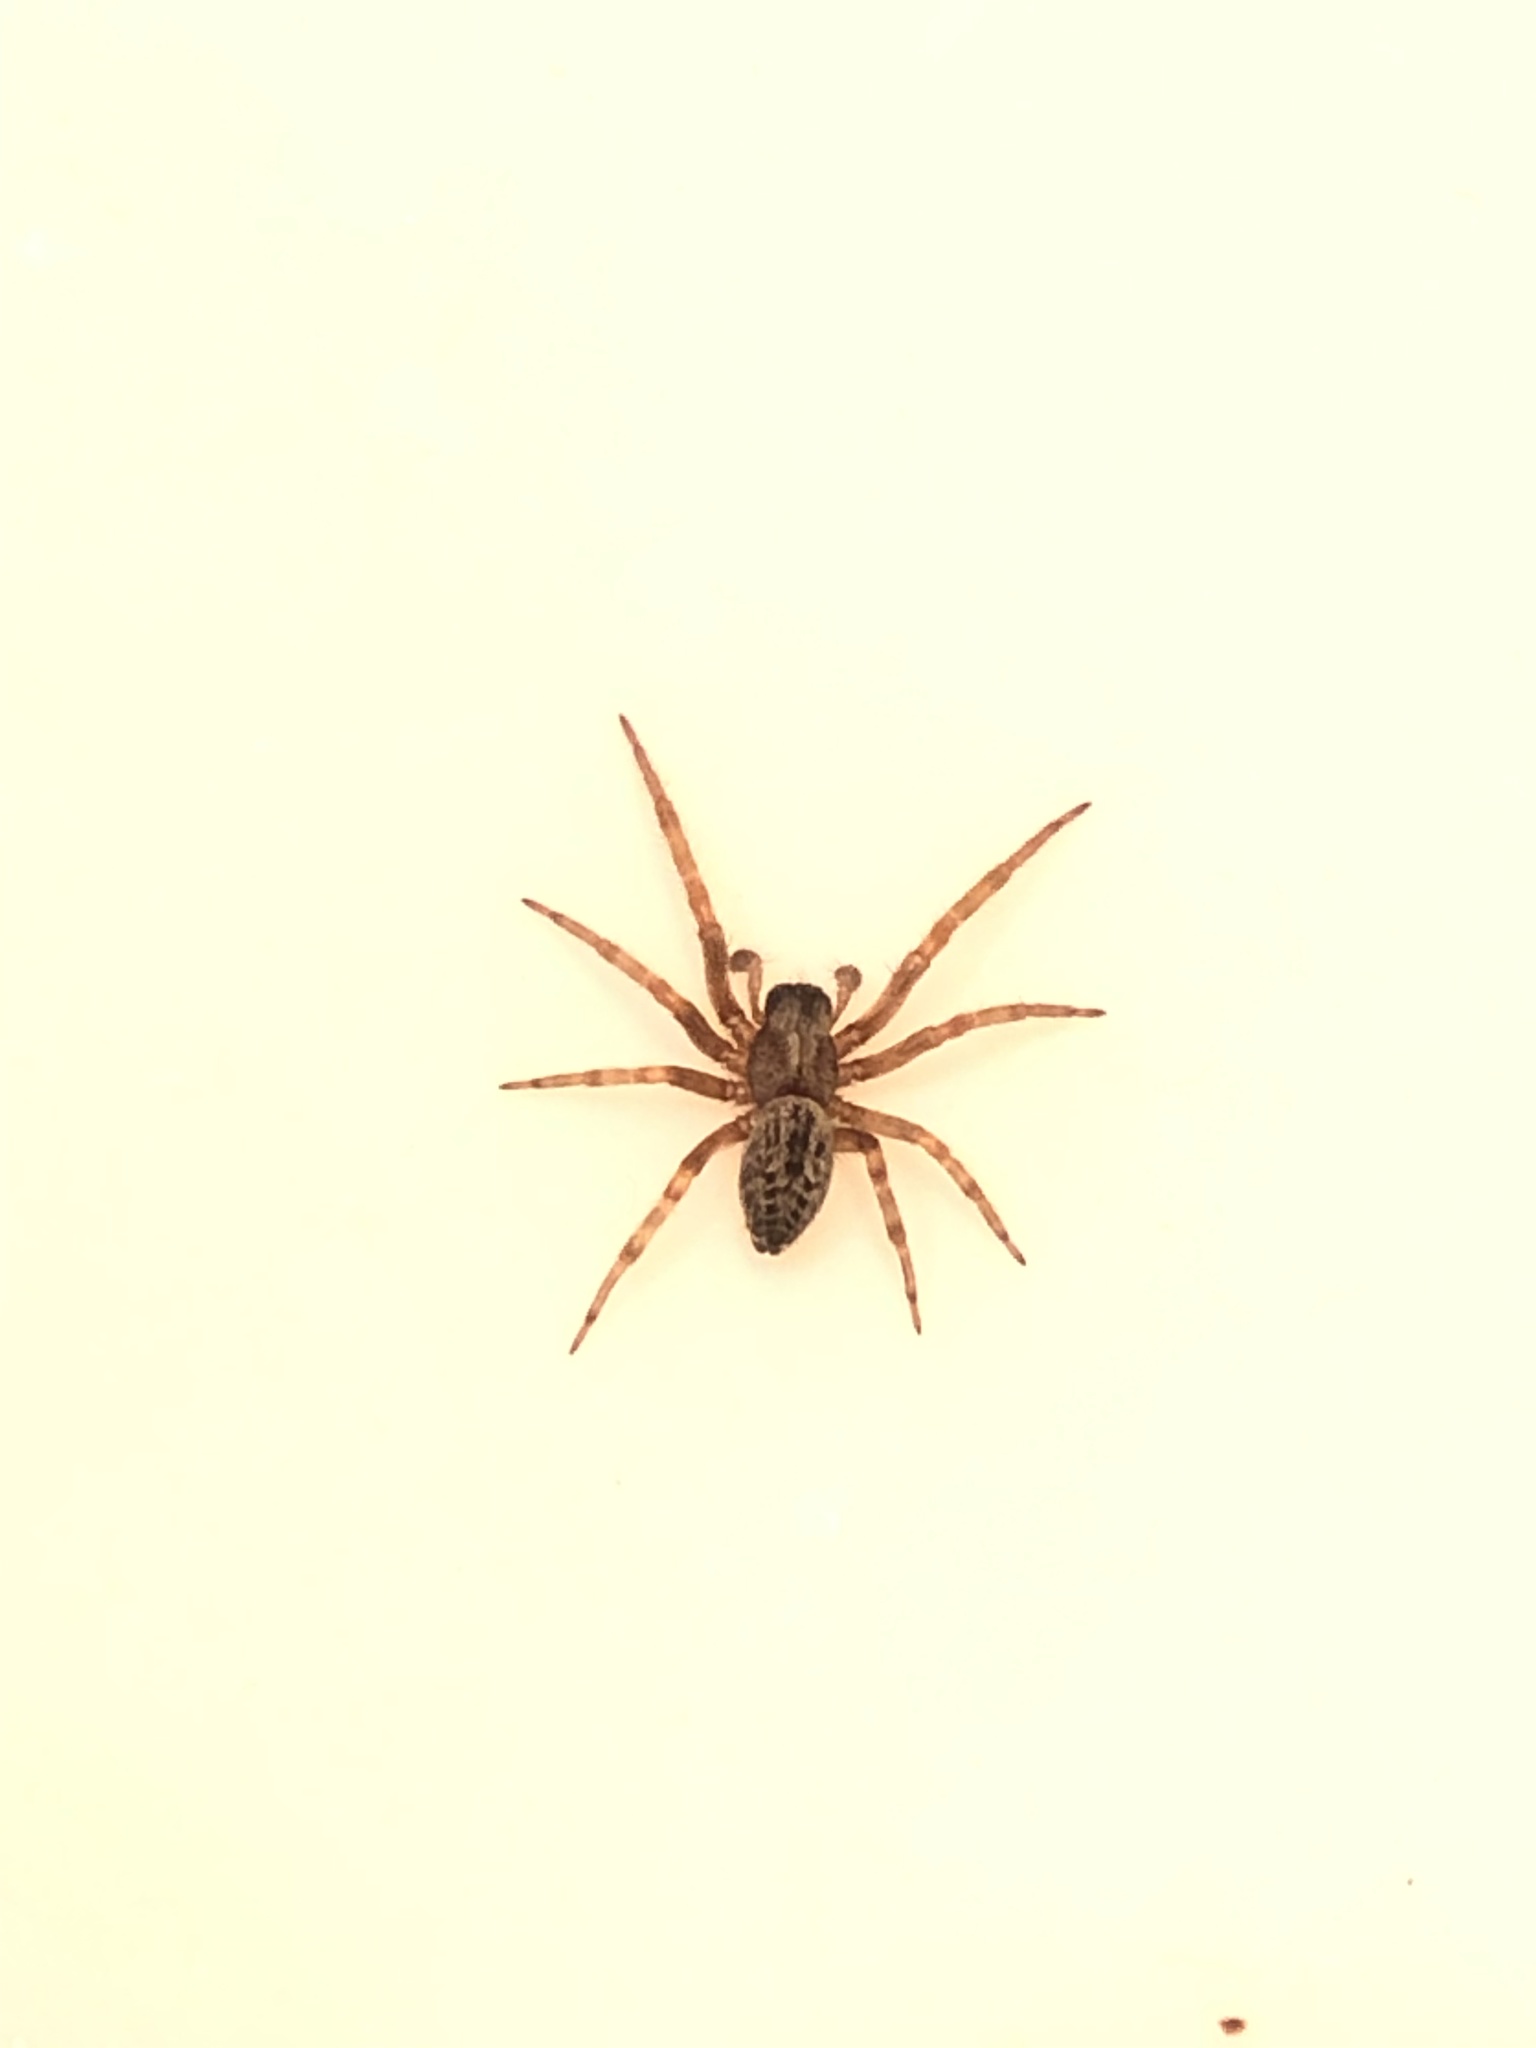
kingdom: Animalia
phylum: Arthropoda
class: Arachnida
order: Araneae
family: Desidae
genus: Badumna
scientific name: Badumna longinqua
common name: Gray house spider
